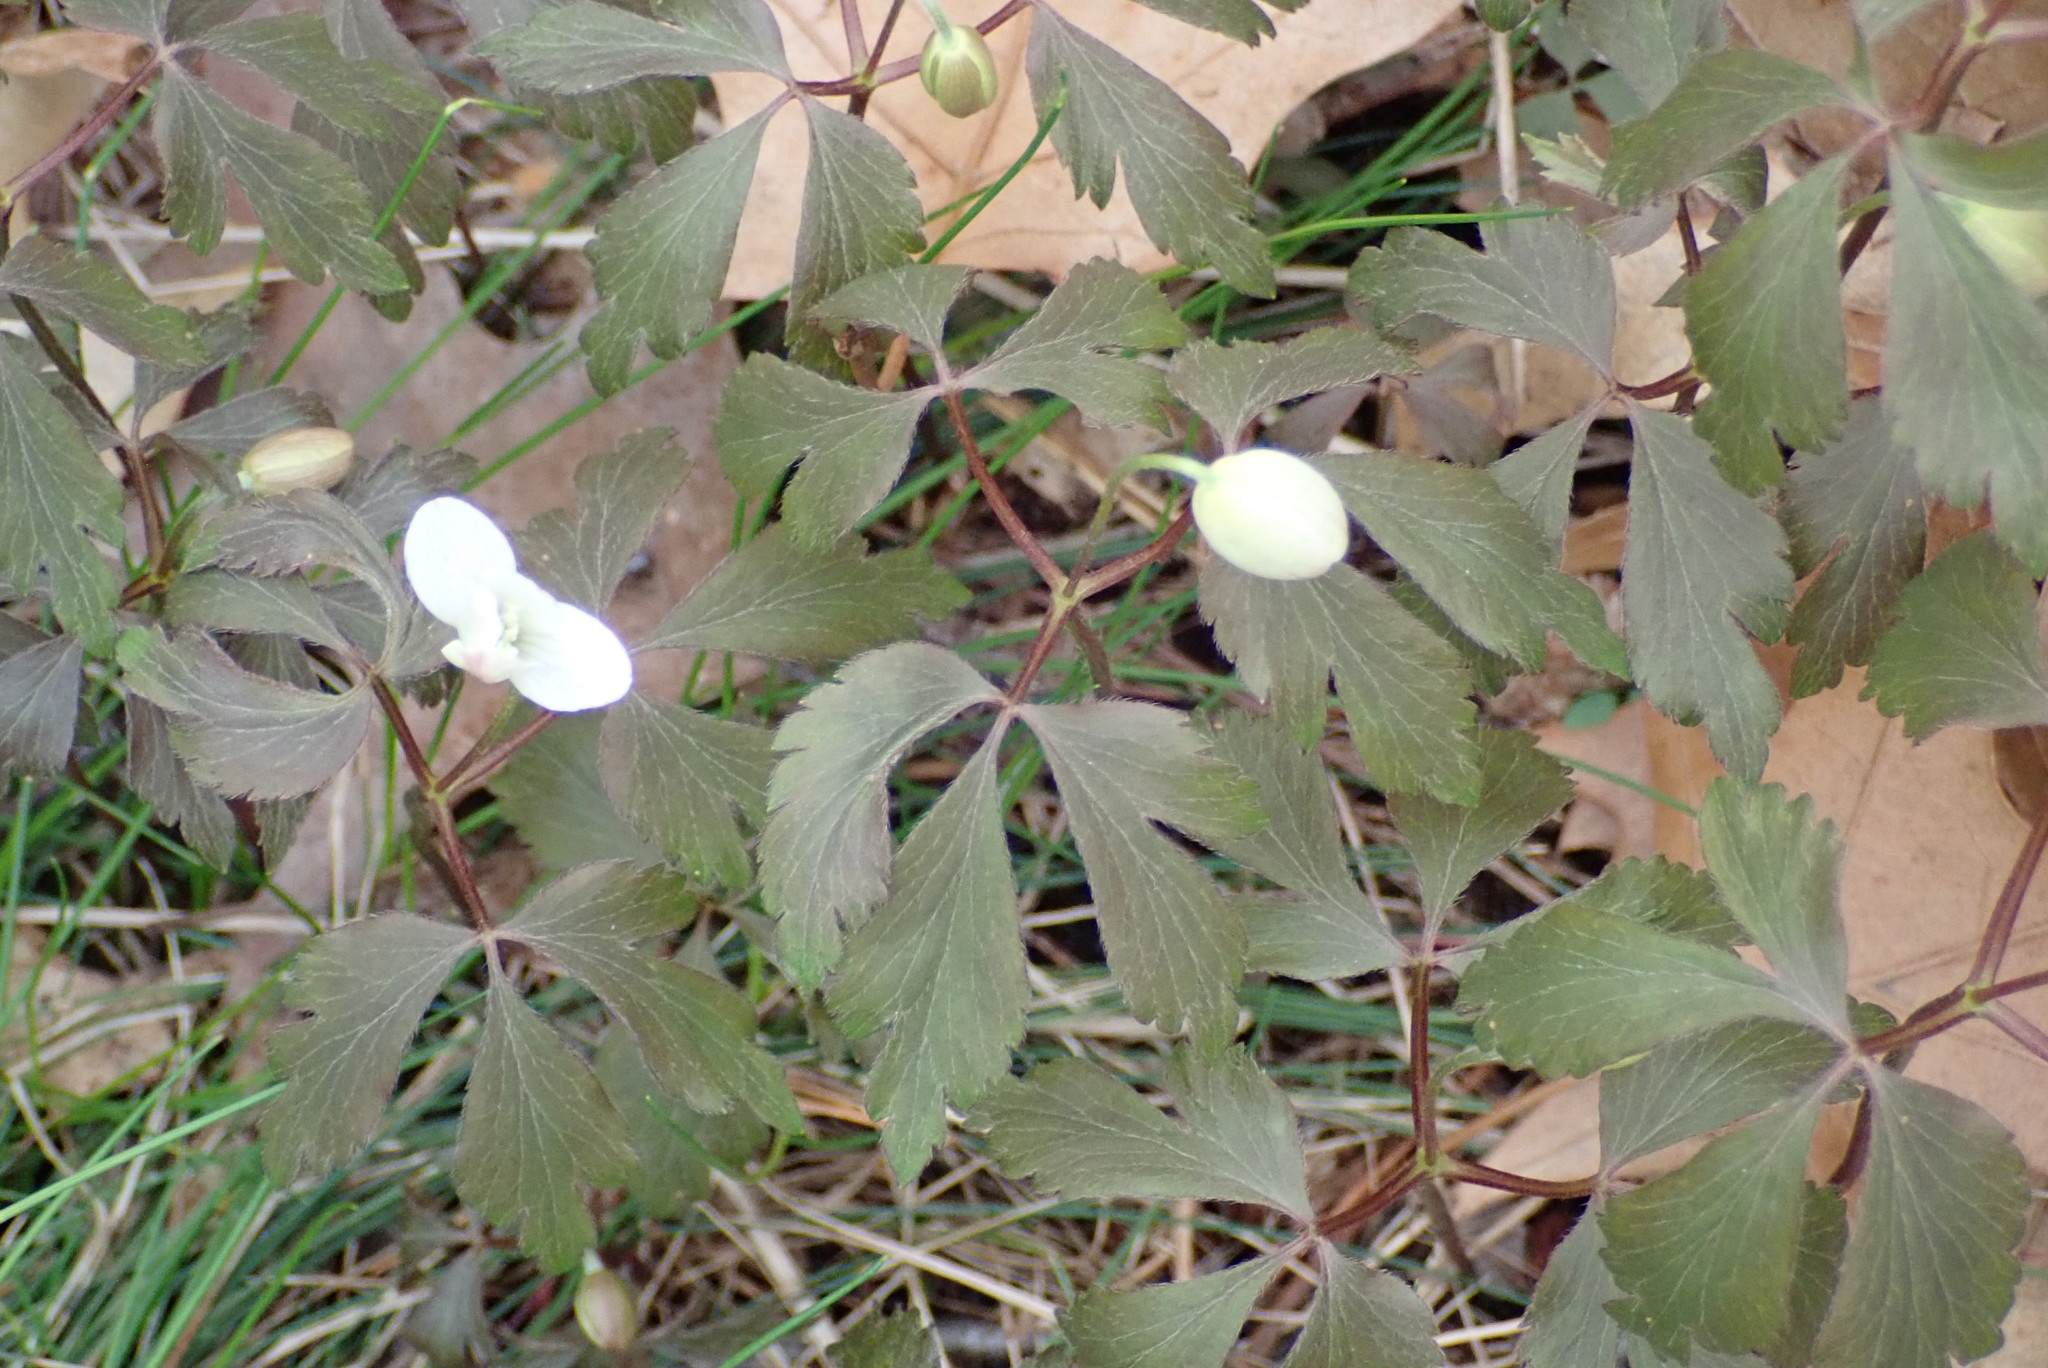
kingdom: Plantae
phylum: Tracheophyta
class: Magnoliopsida
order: Ranunculales
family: Ranunculaceae
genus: Anemone
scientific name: Anemone quinquefolia
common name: Wood anemone
